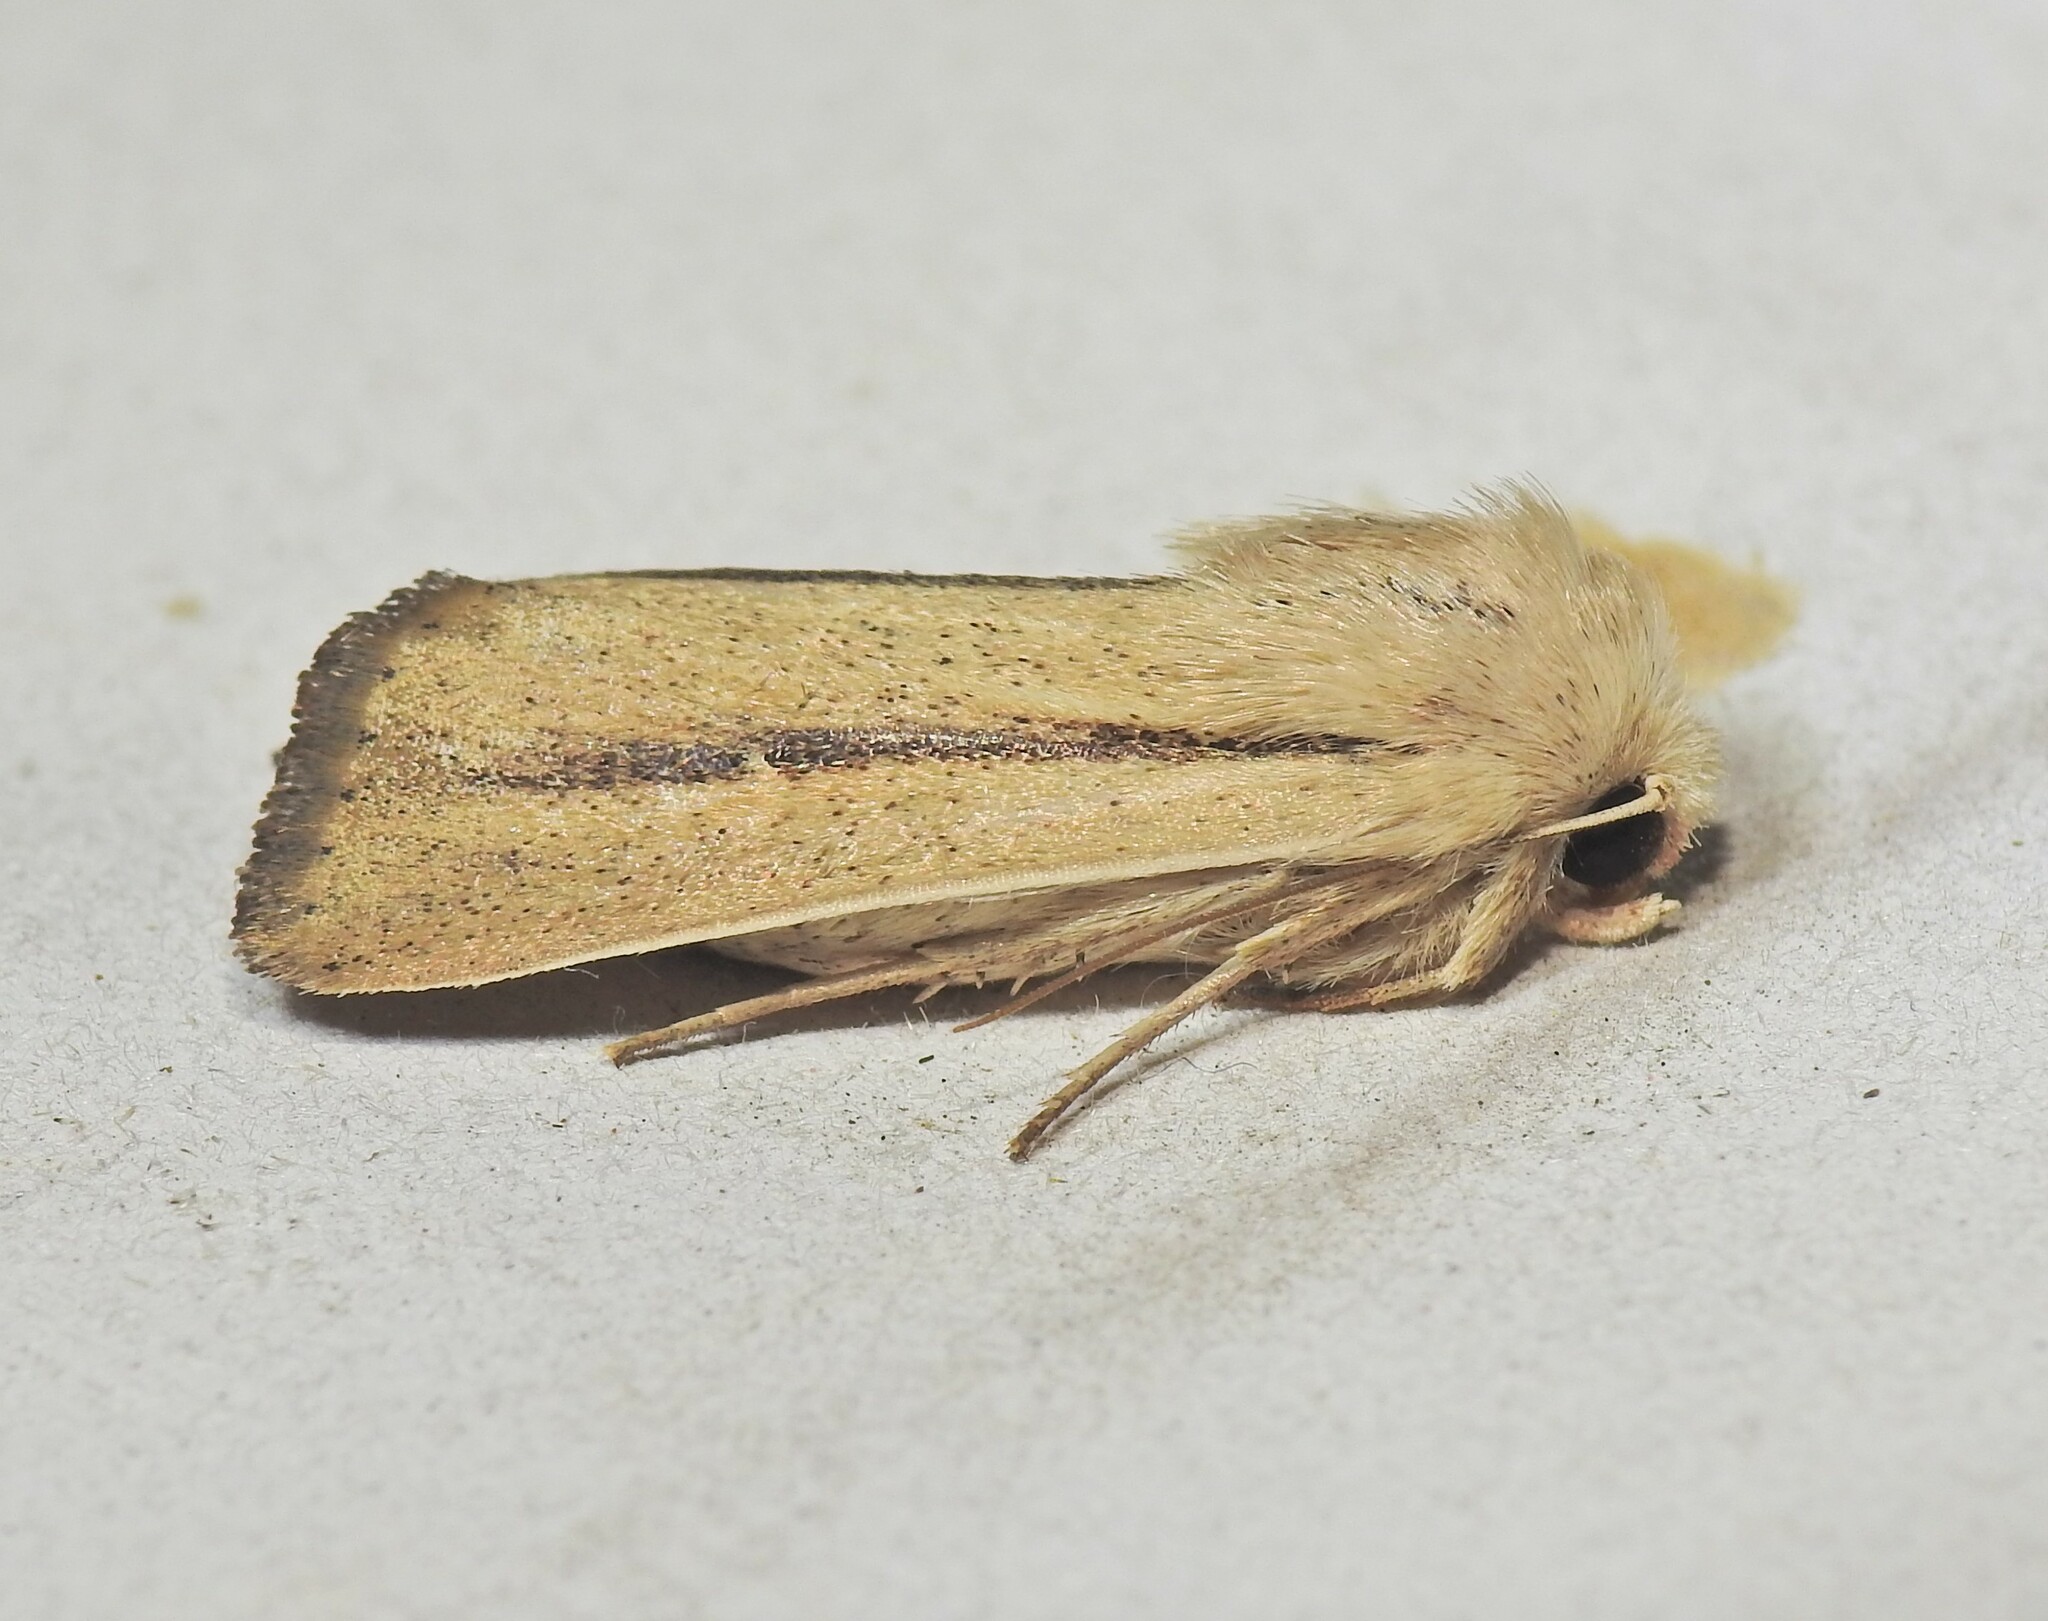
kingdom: Animalia
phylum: Arthropoda
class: Insecta
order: Lepidoptera
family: Noctuidae
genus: Leucania
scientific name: Leucania diatrecta
